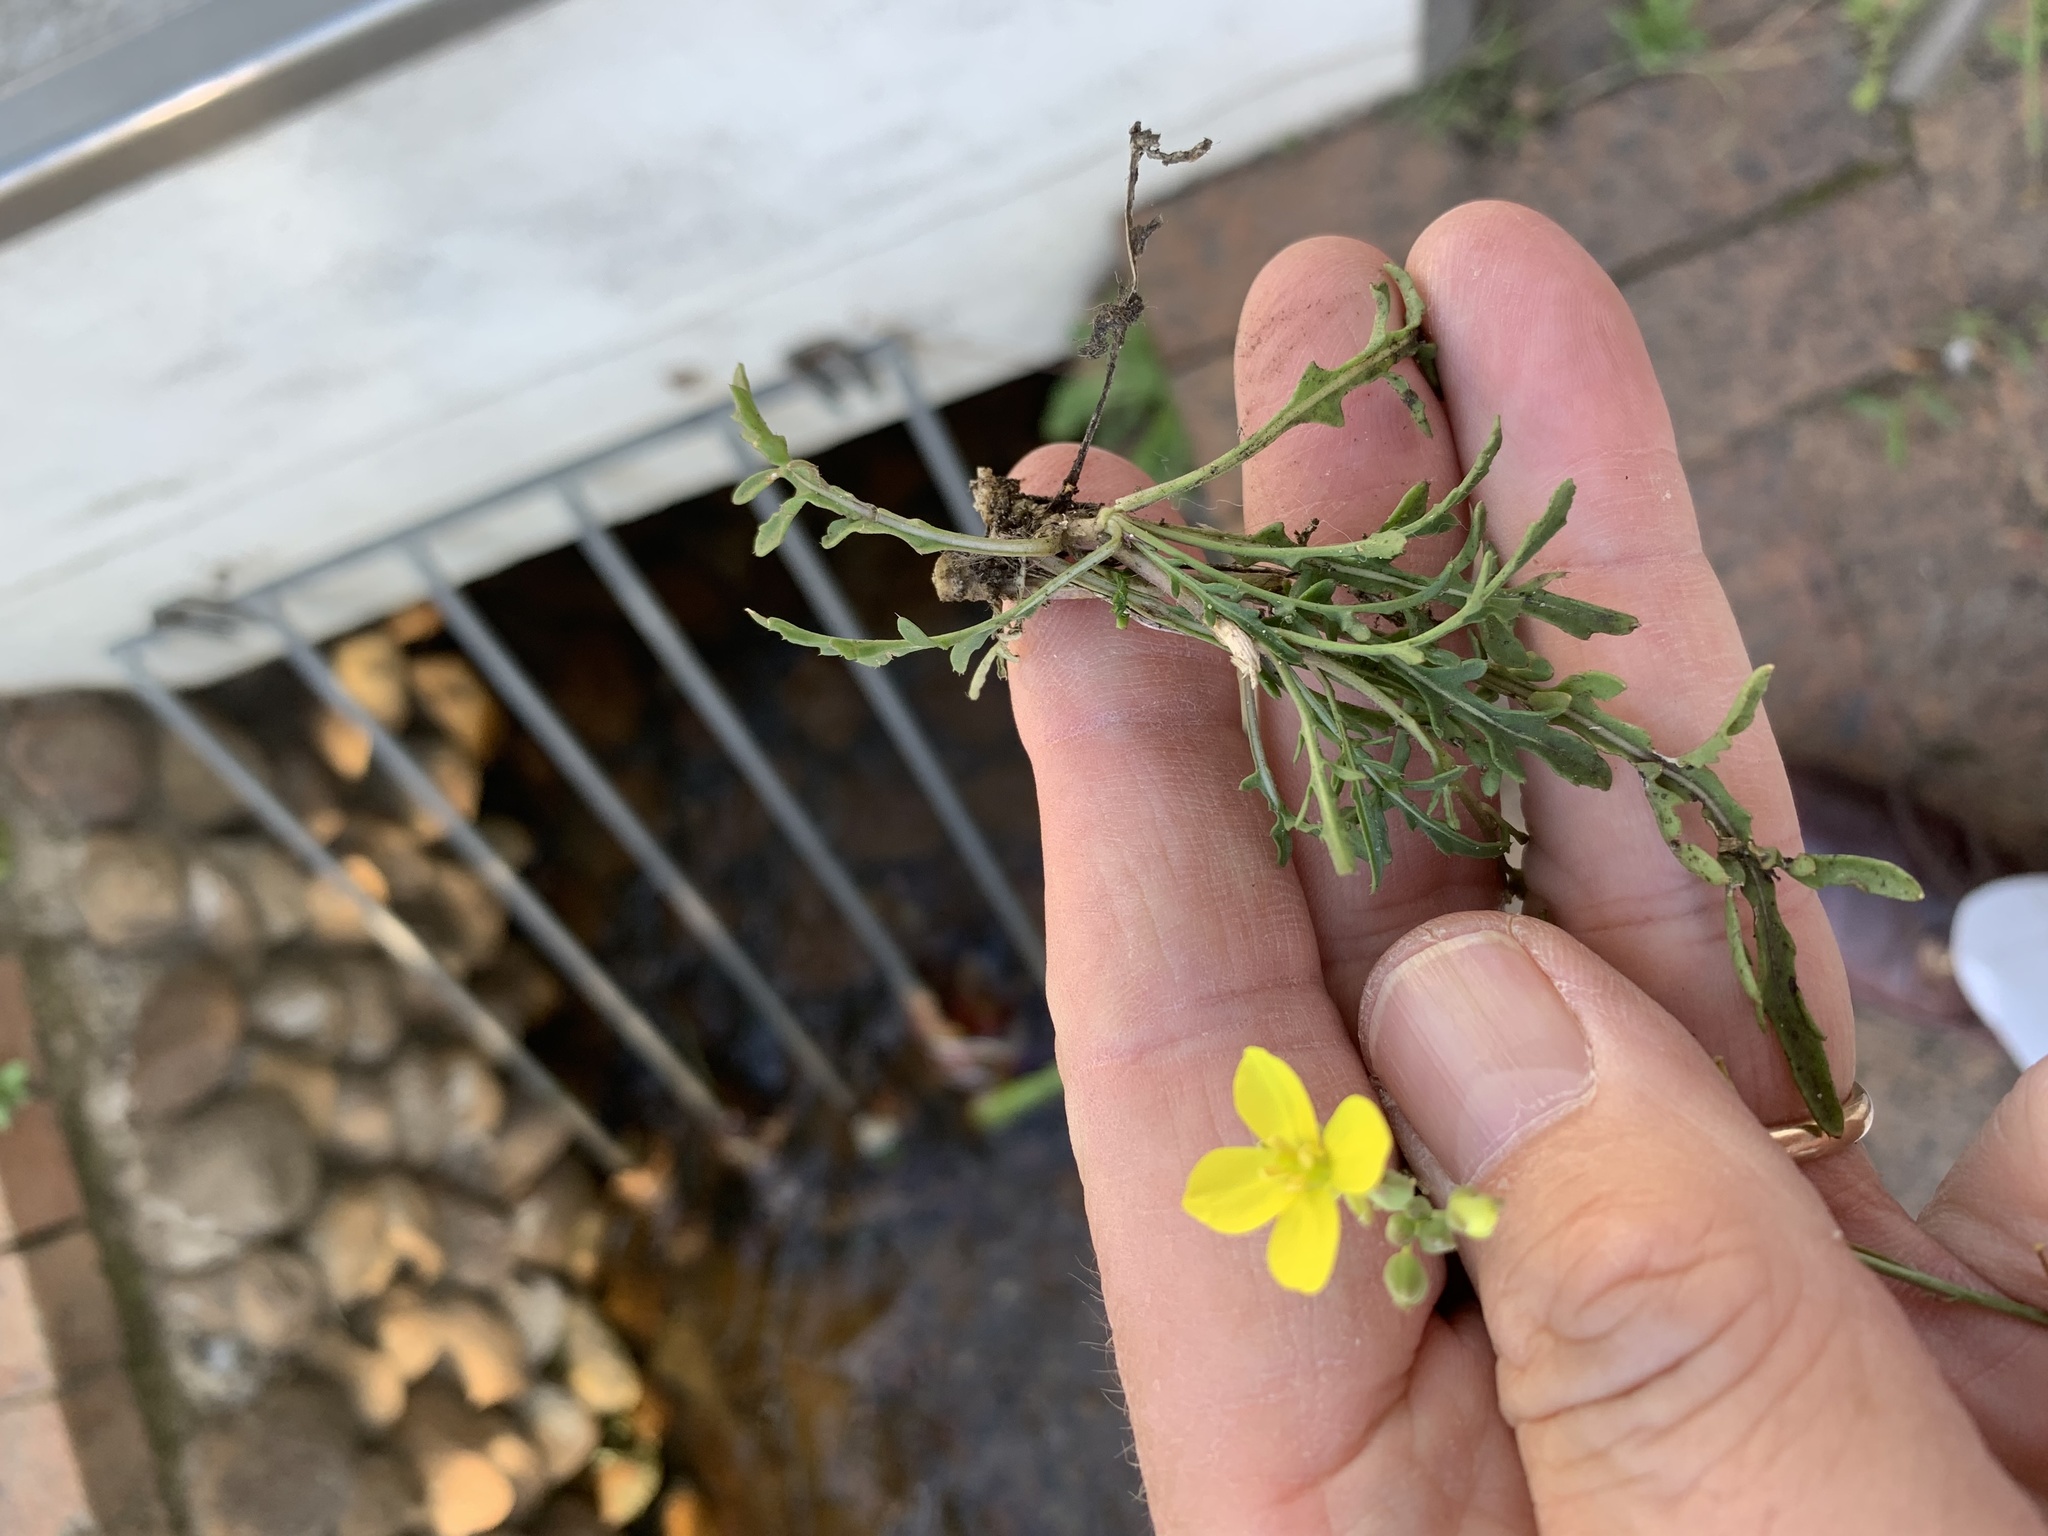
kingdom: Plantae
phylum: Tracheophyta
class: Magnoliopsida
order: Brassicales
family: Brassicaceae
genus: Diplotaxis
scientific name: Diplotaxis muralis
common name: Annual wall-rocket
